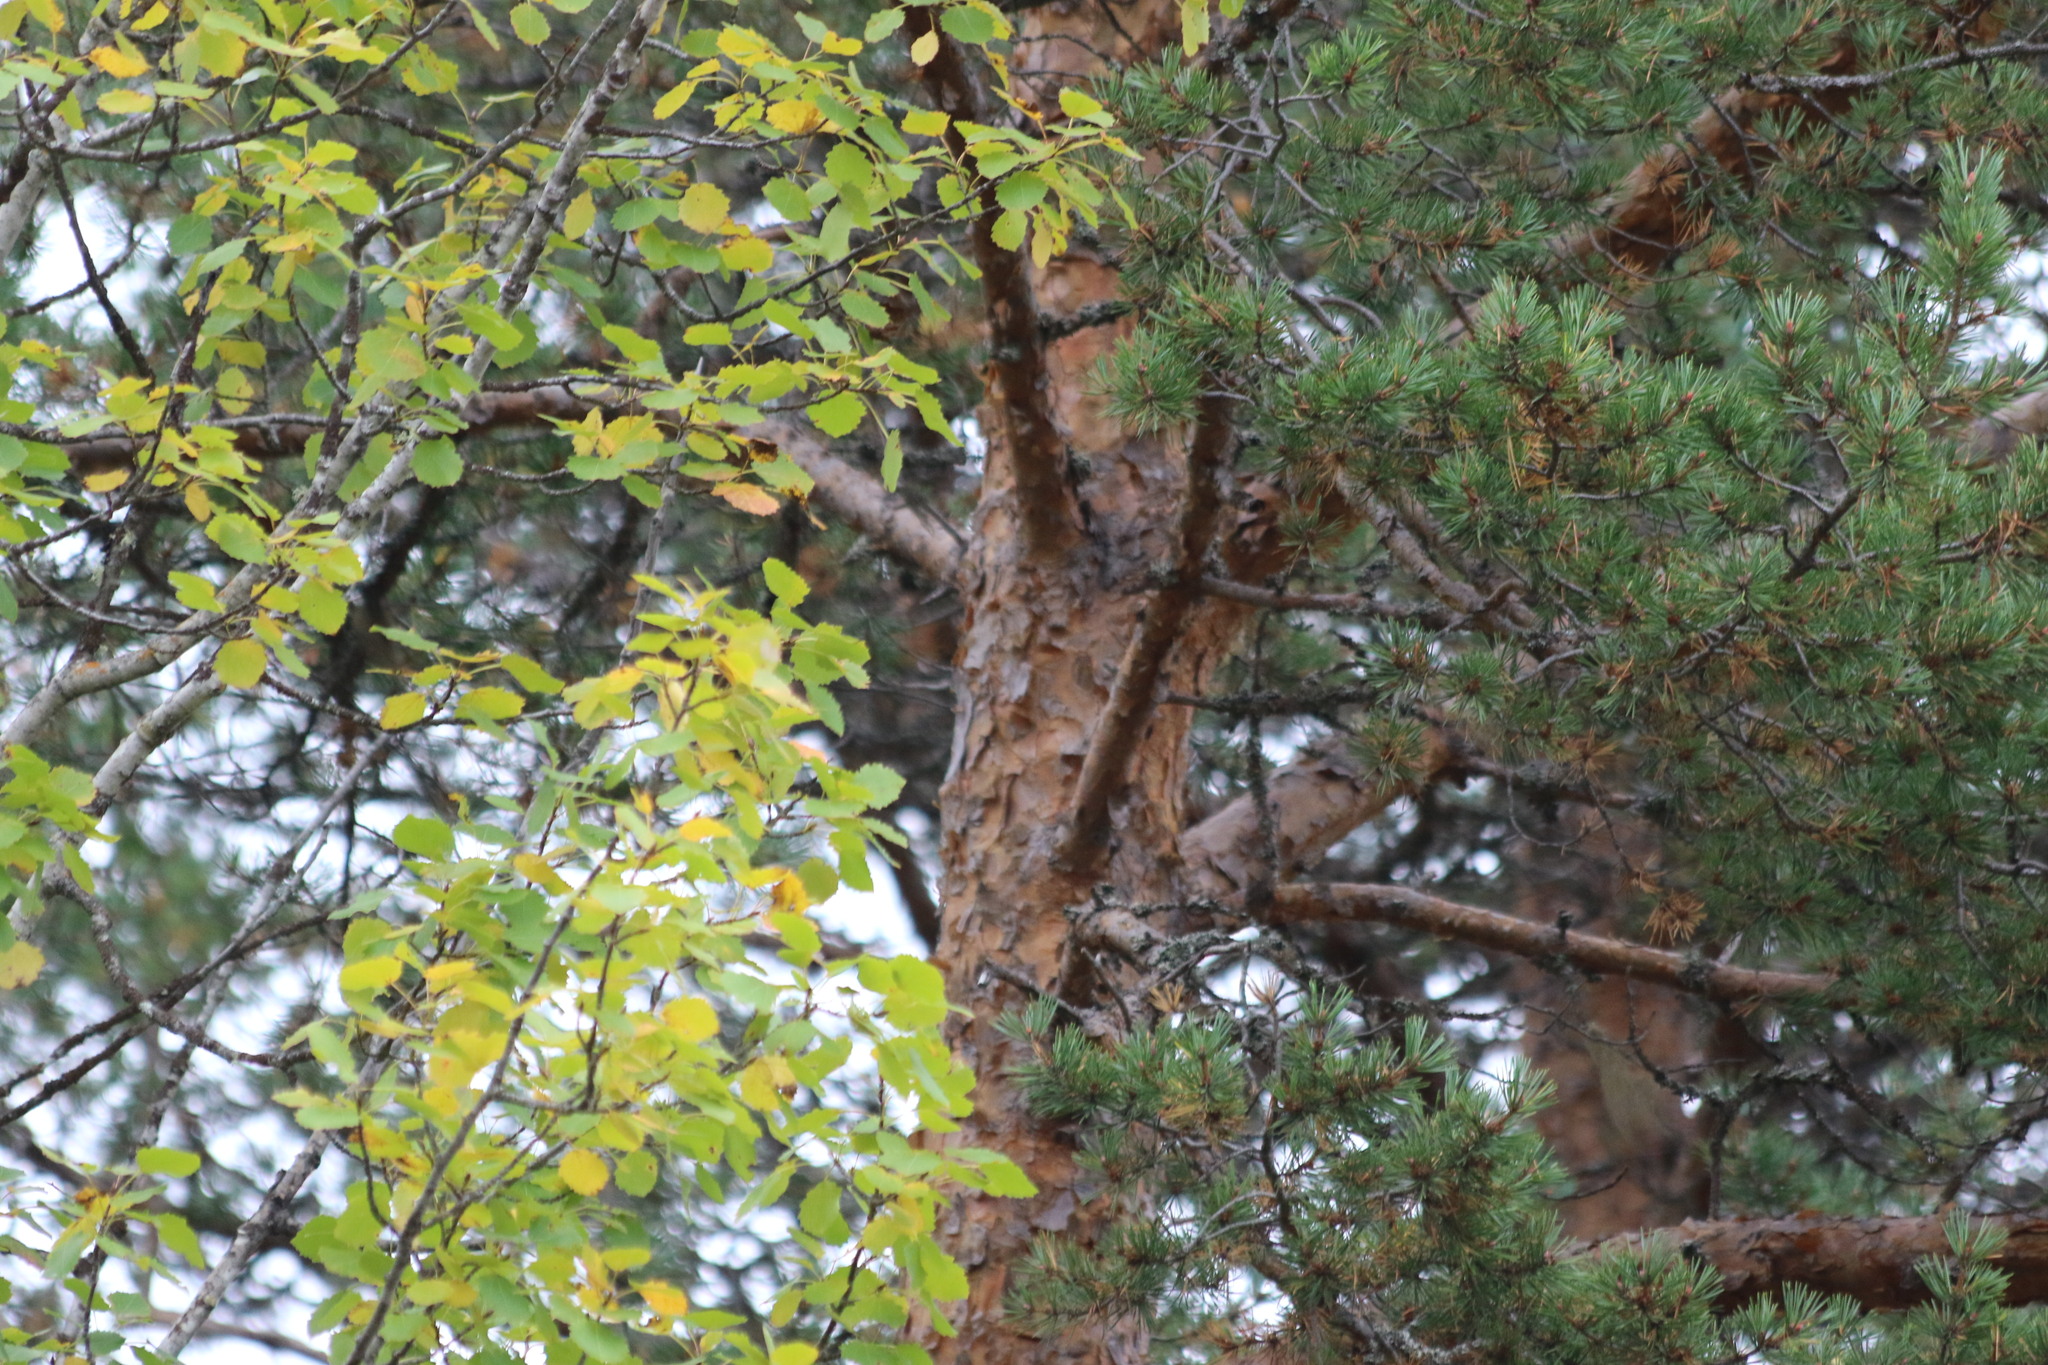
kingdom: Plantae
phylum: Tracheophyta
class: Pinopsida
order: Pinales
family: Pinaceae
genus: Pinus
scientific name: Pinus sylvestris
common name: Scots pine
